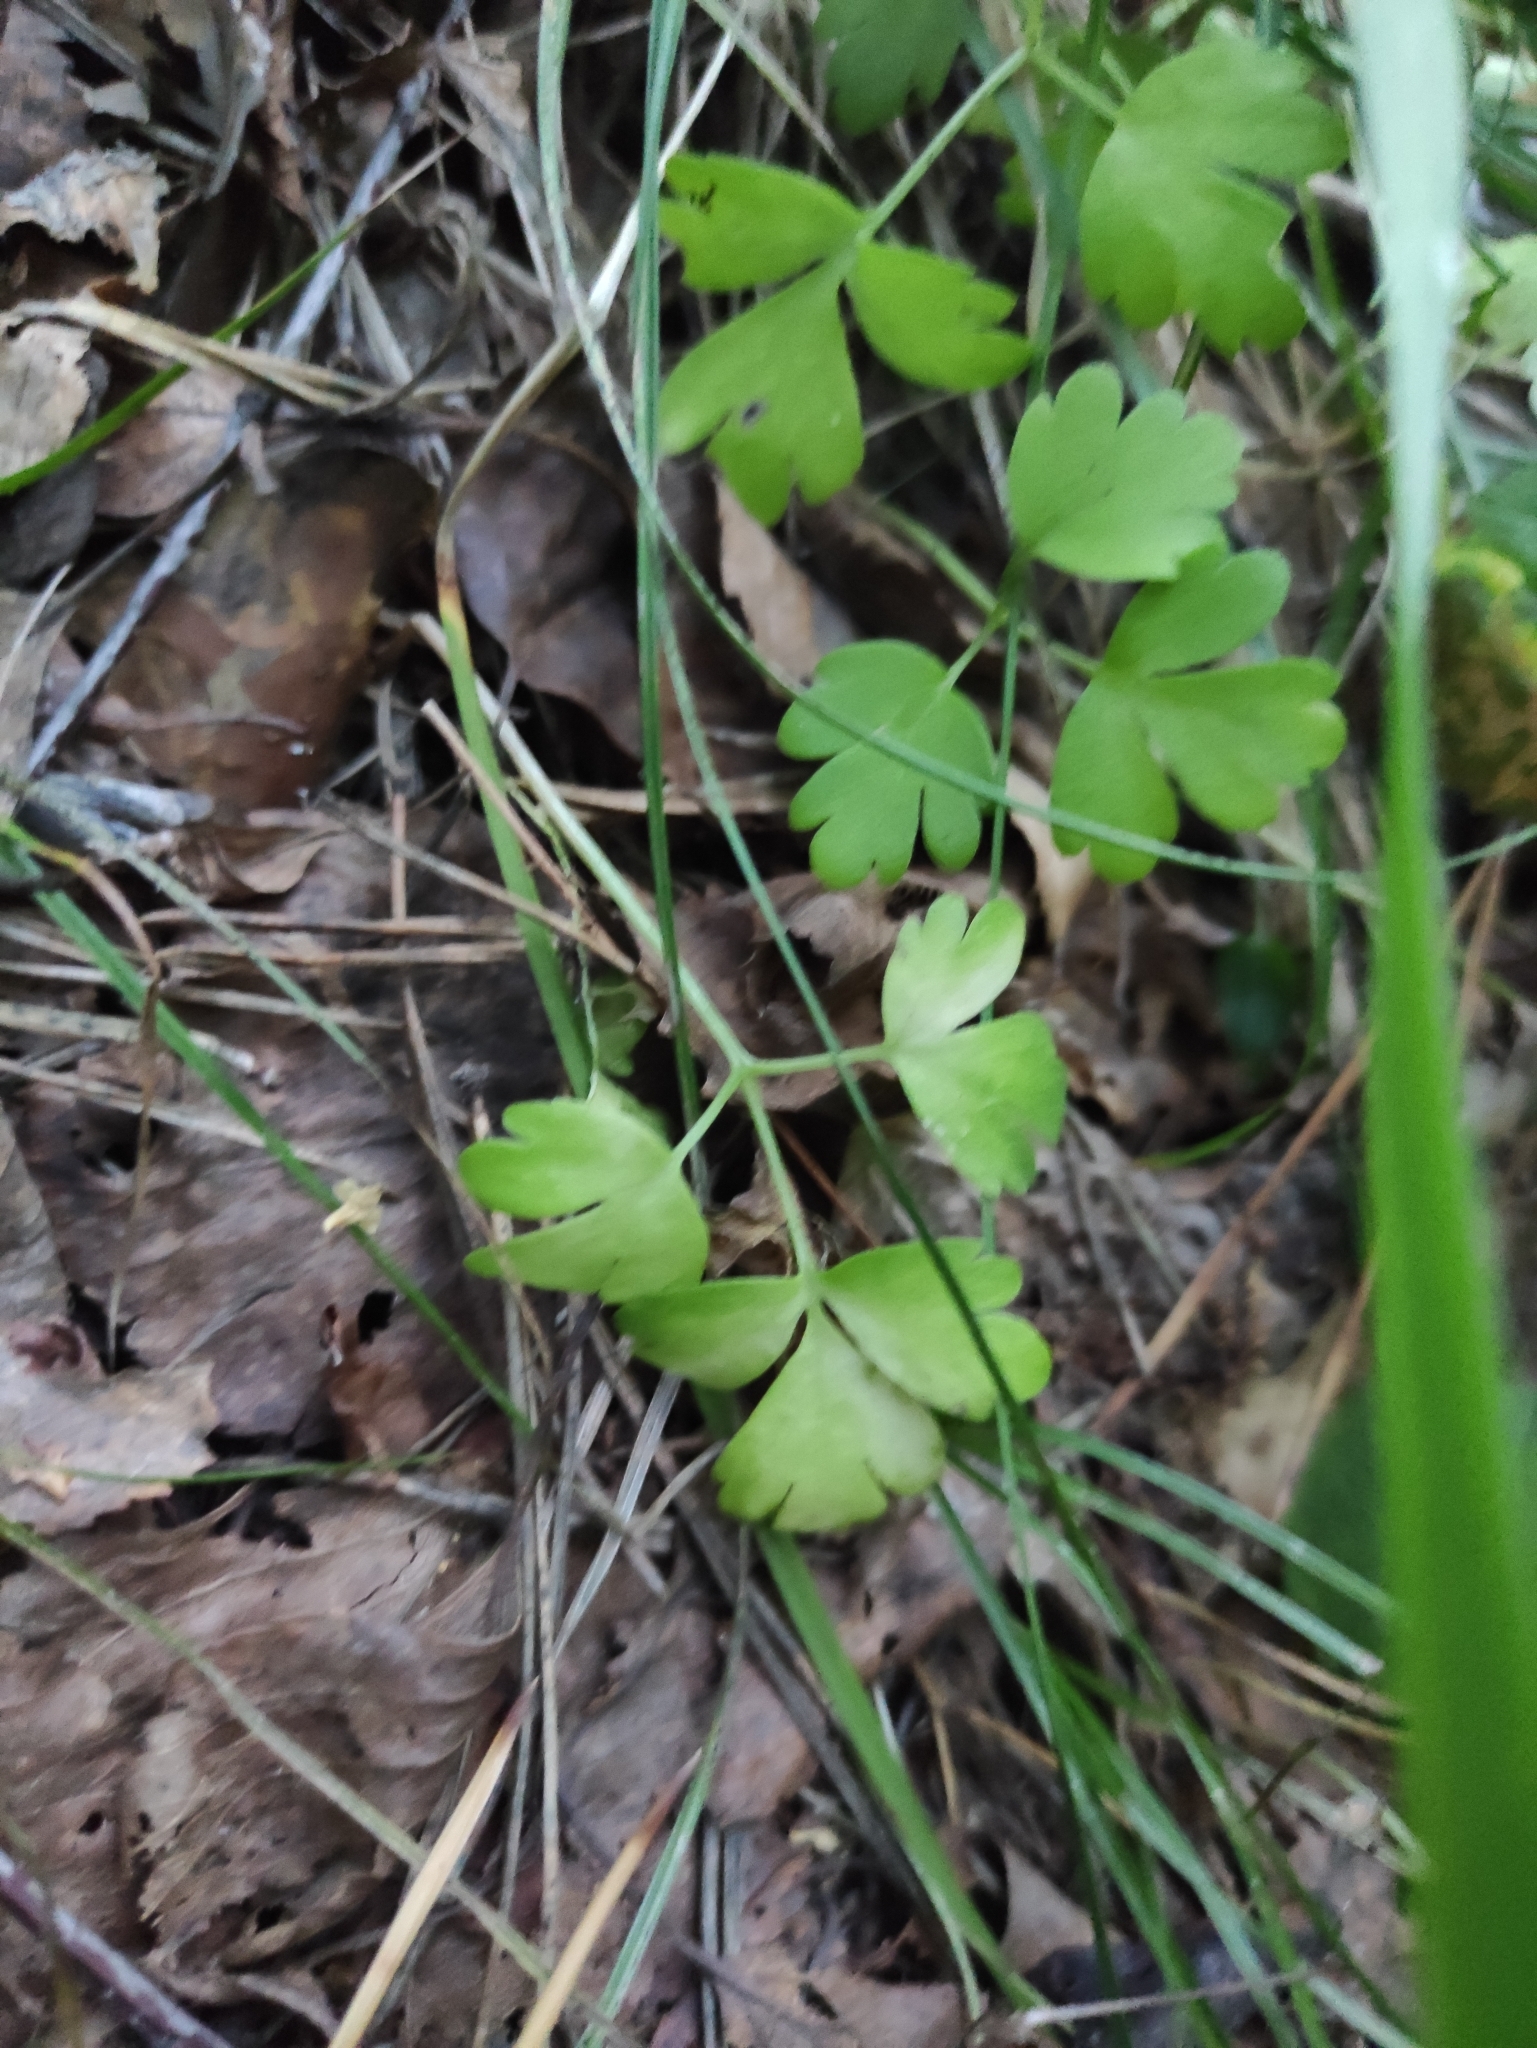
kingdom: Plantae
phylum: Tracheophyta
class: Magnoliopsida
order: Dipsacales
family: Viburnaceae
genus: Adoxa
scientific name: Adoxa moschatellina
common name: Moschatel
